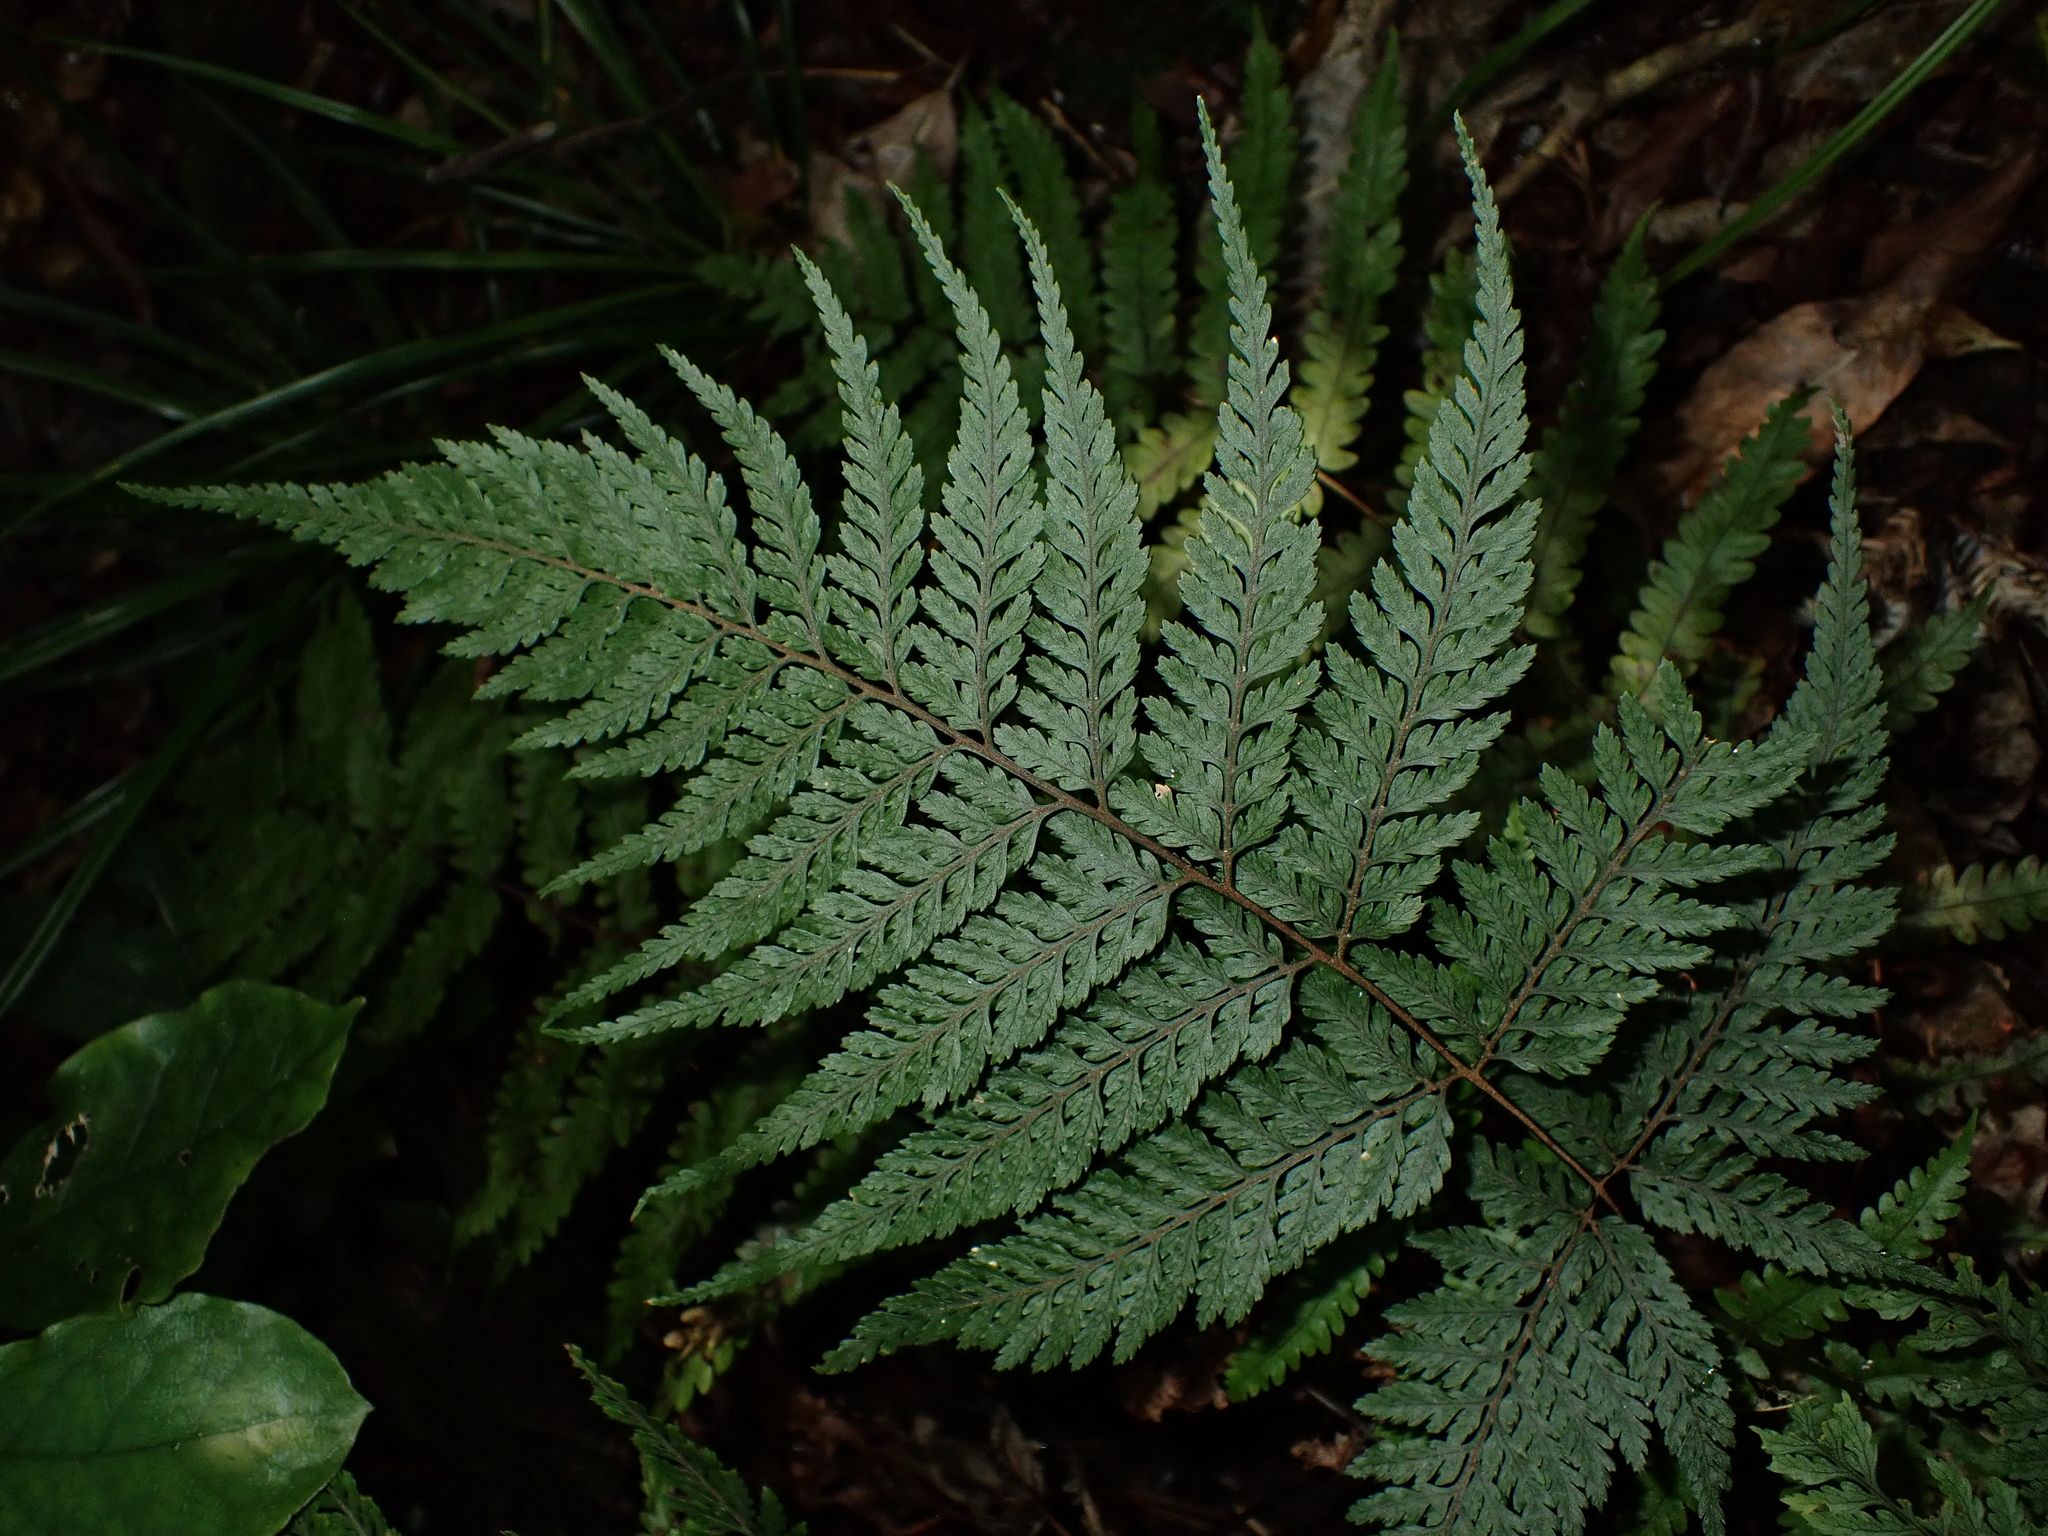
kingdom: Plantae
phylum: Tracheophyta
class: Polypodiopsida
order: Polypodiales
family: Dryopteridaceae
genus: Parapolystichum
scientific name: Parapolystichum glabellum
